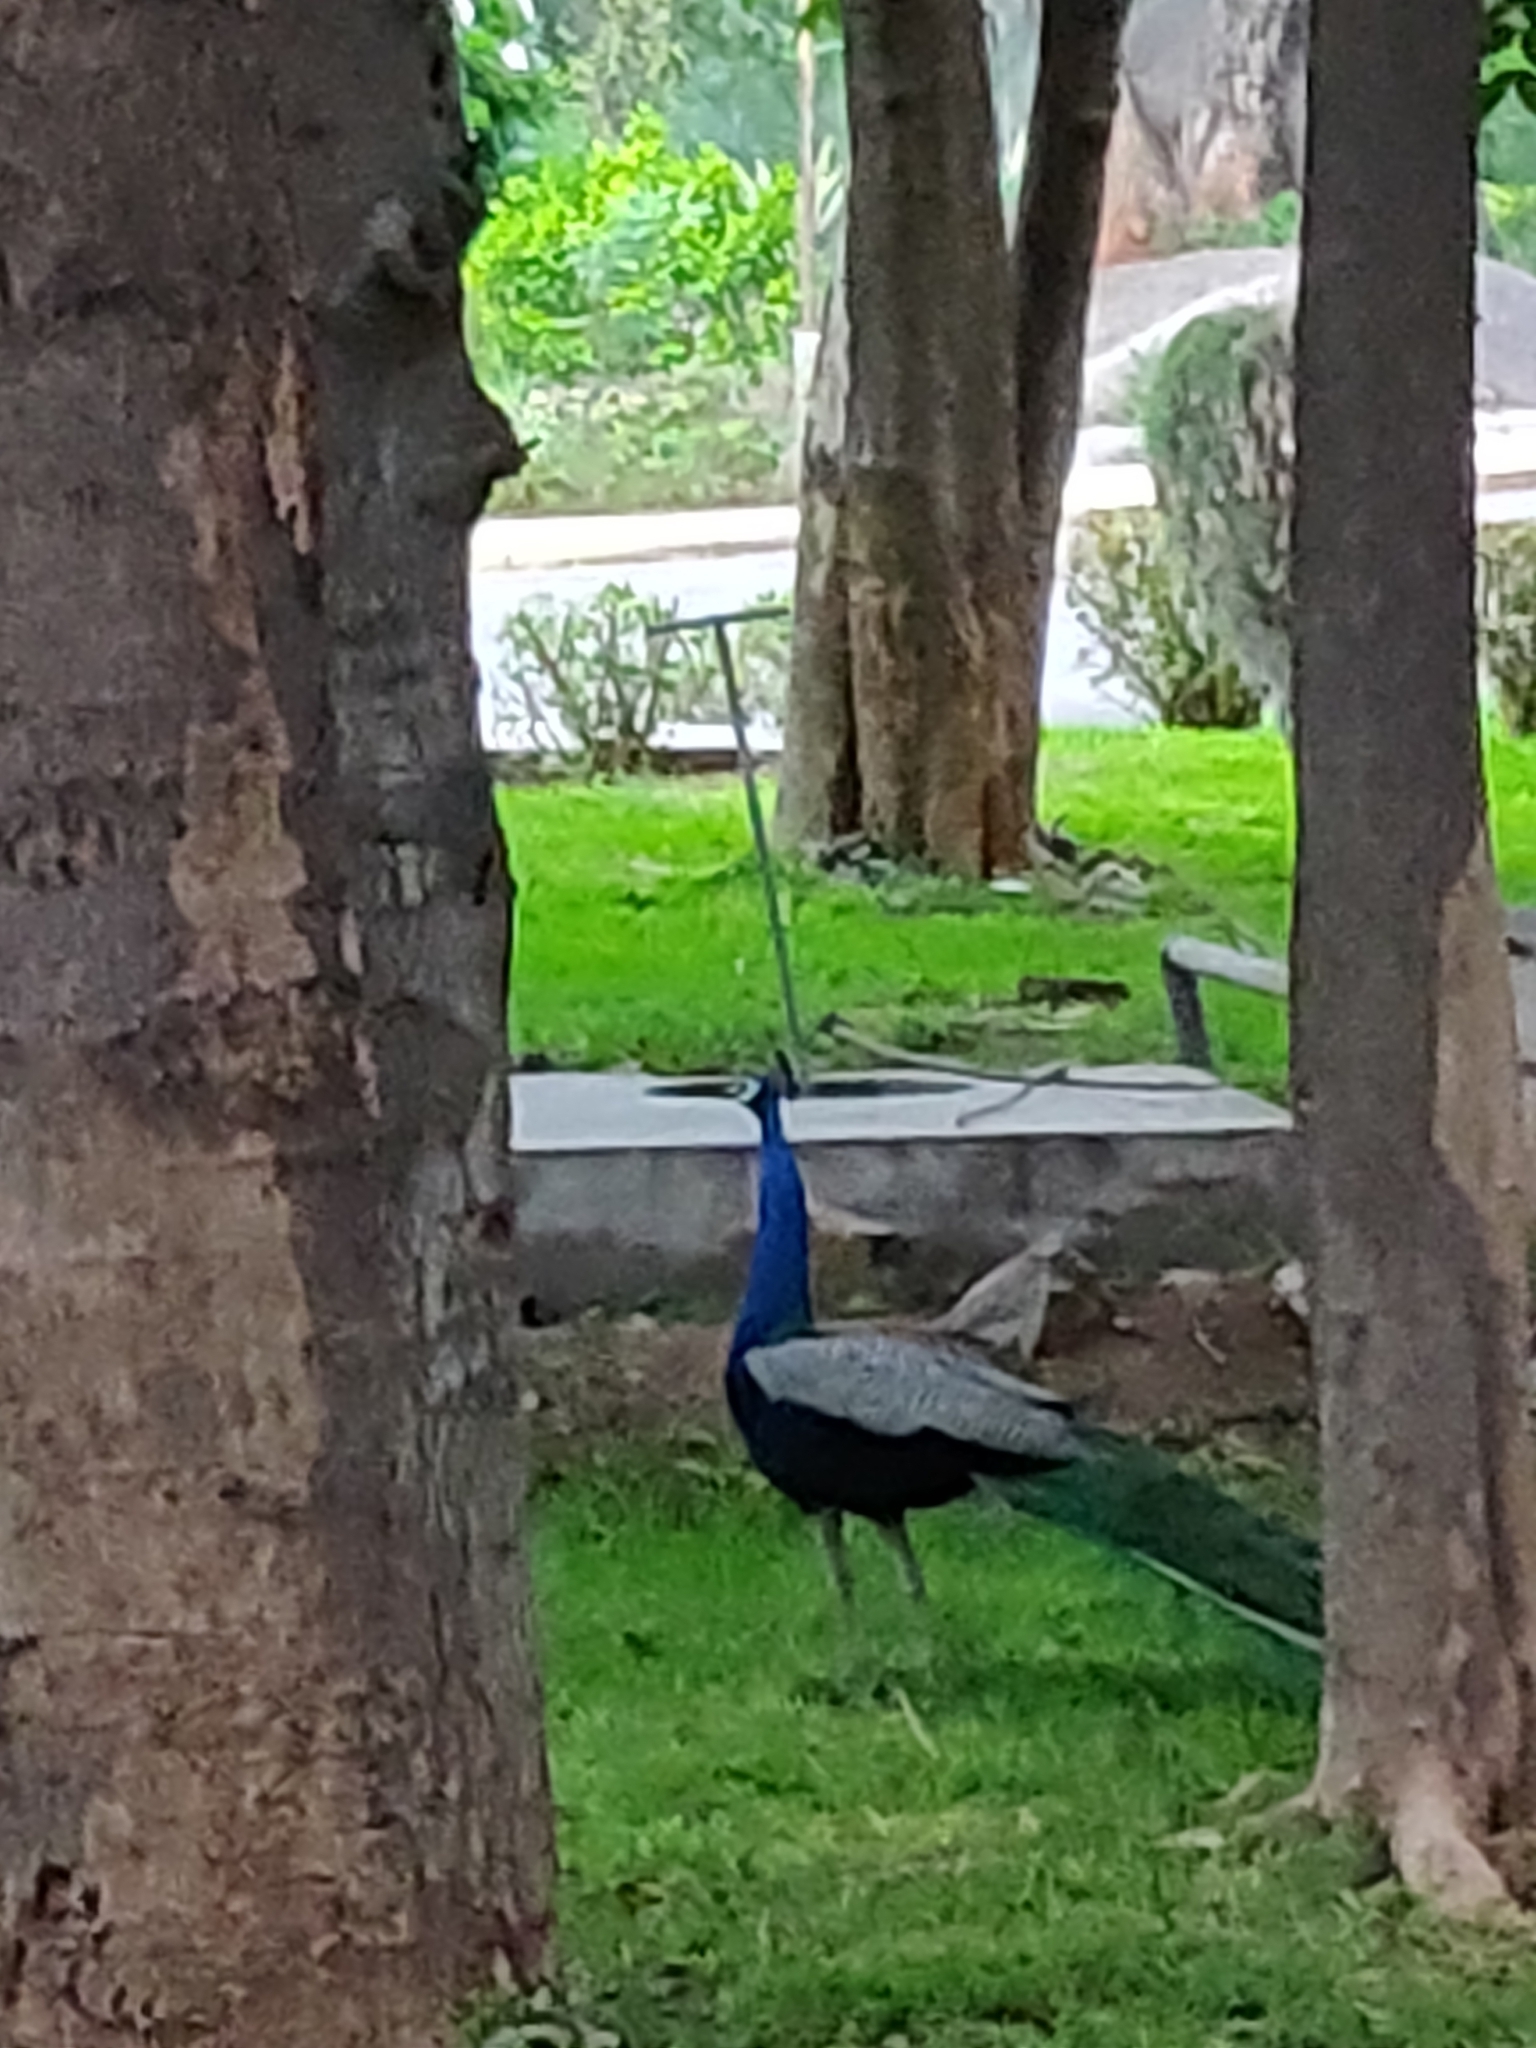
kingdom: Animalia
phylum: Chordata
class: Aves
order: Galliformes
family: Phasianidae
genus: Pavo
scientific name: Pavo cristatus
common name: Indian peafowl
